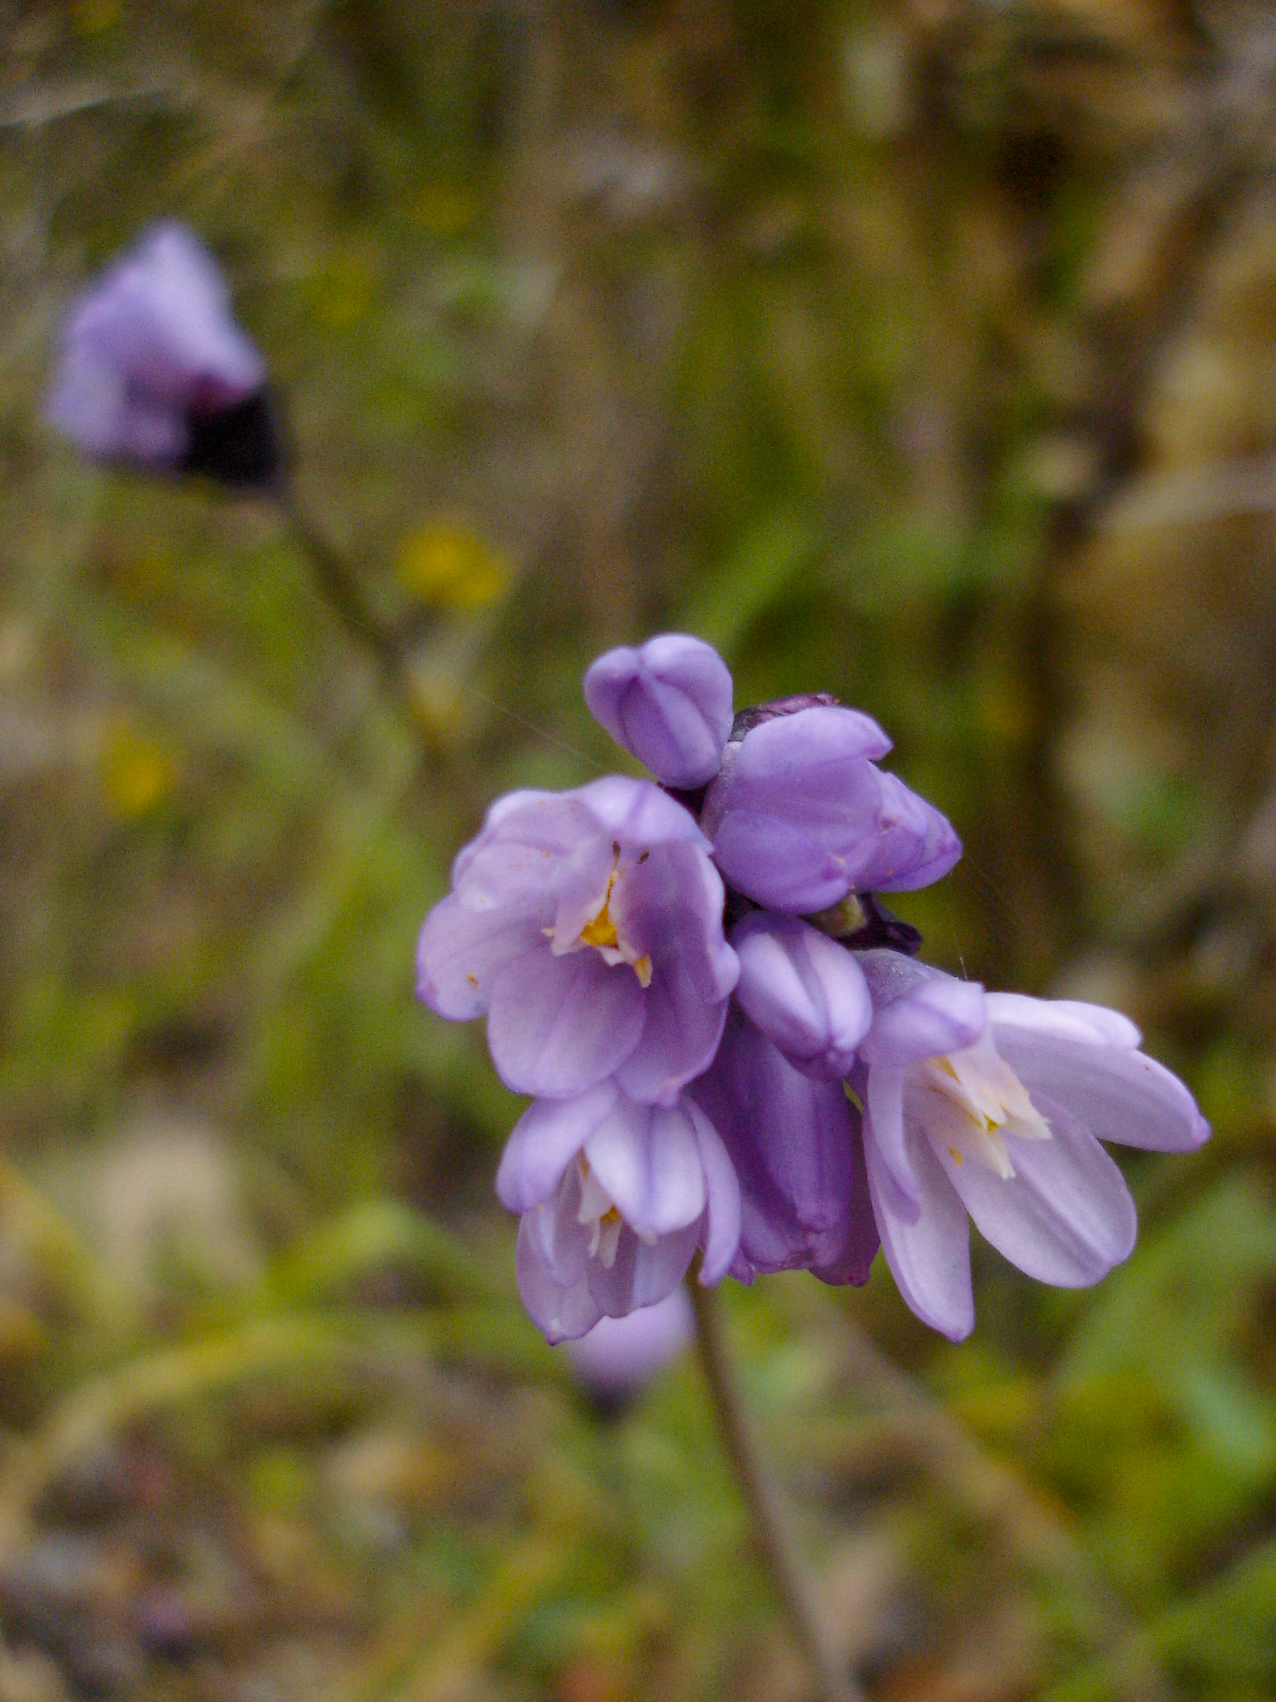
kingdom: Plantae
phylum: Tracheophyta
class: Liliopsida
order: Asparagales
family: Asparagaceae
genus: Dipterostemon
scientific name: Dipterostemon capitatus
